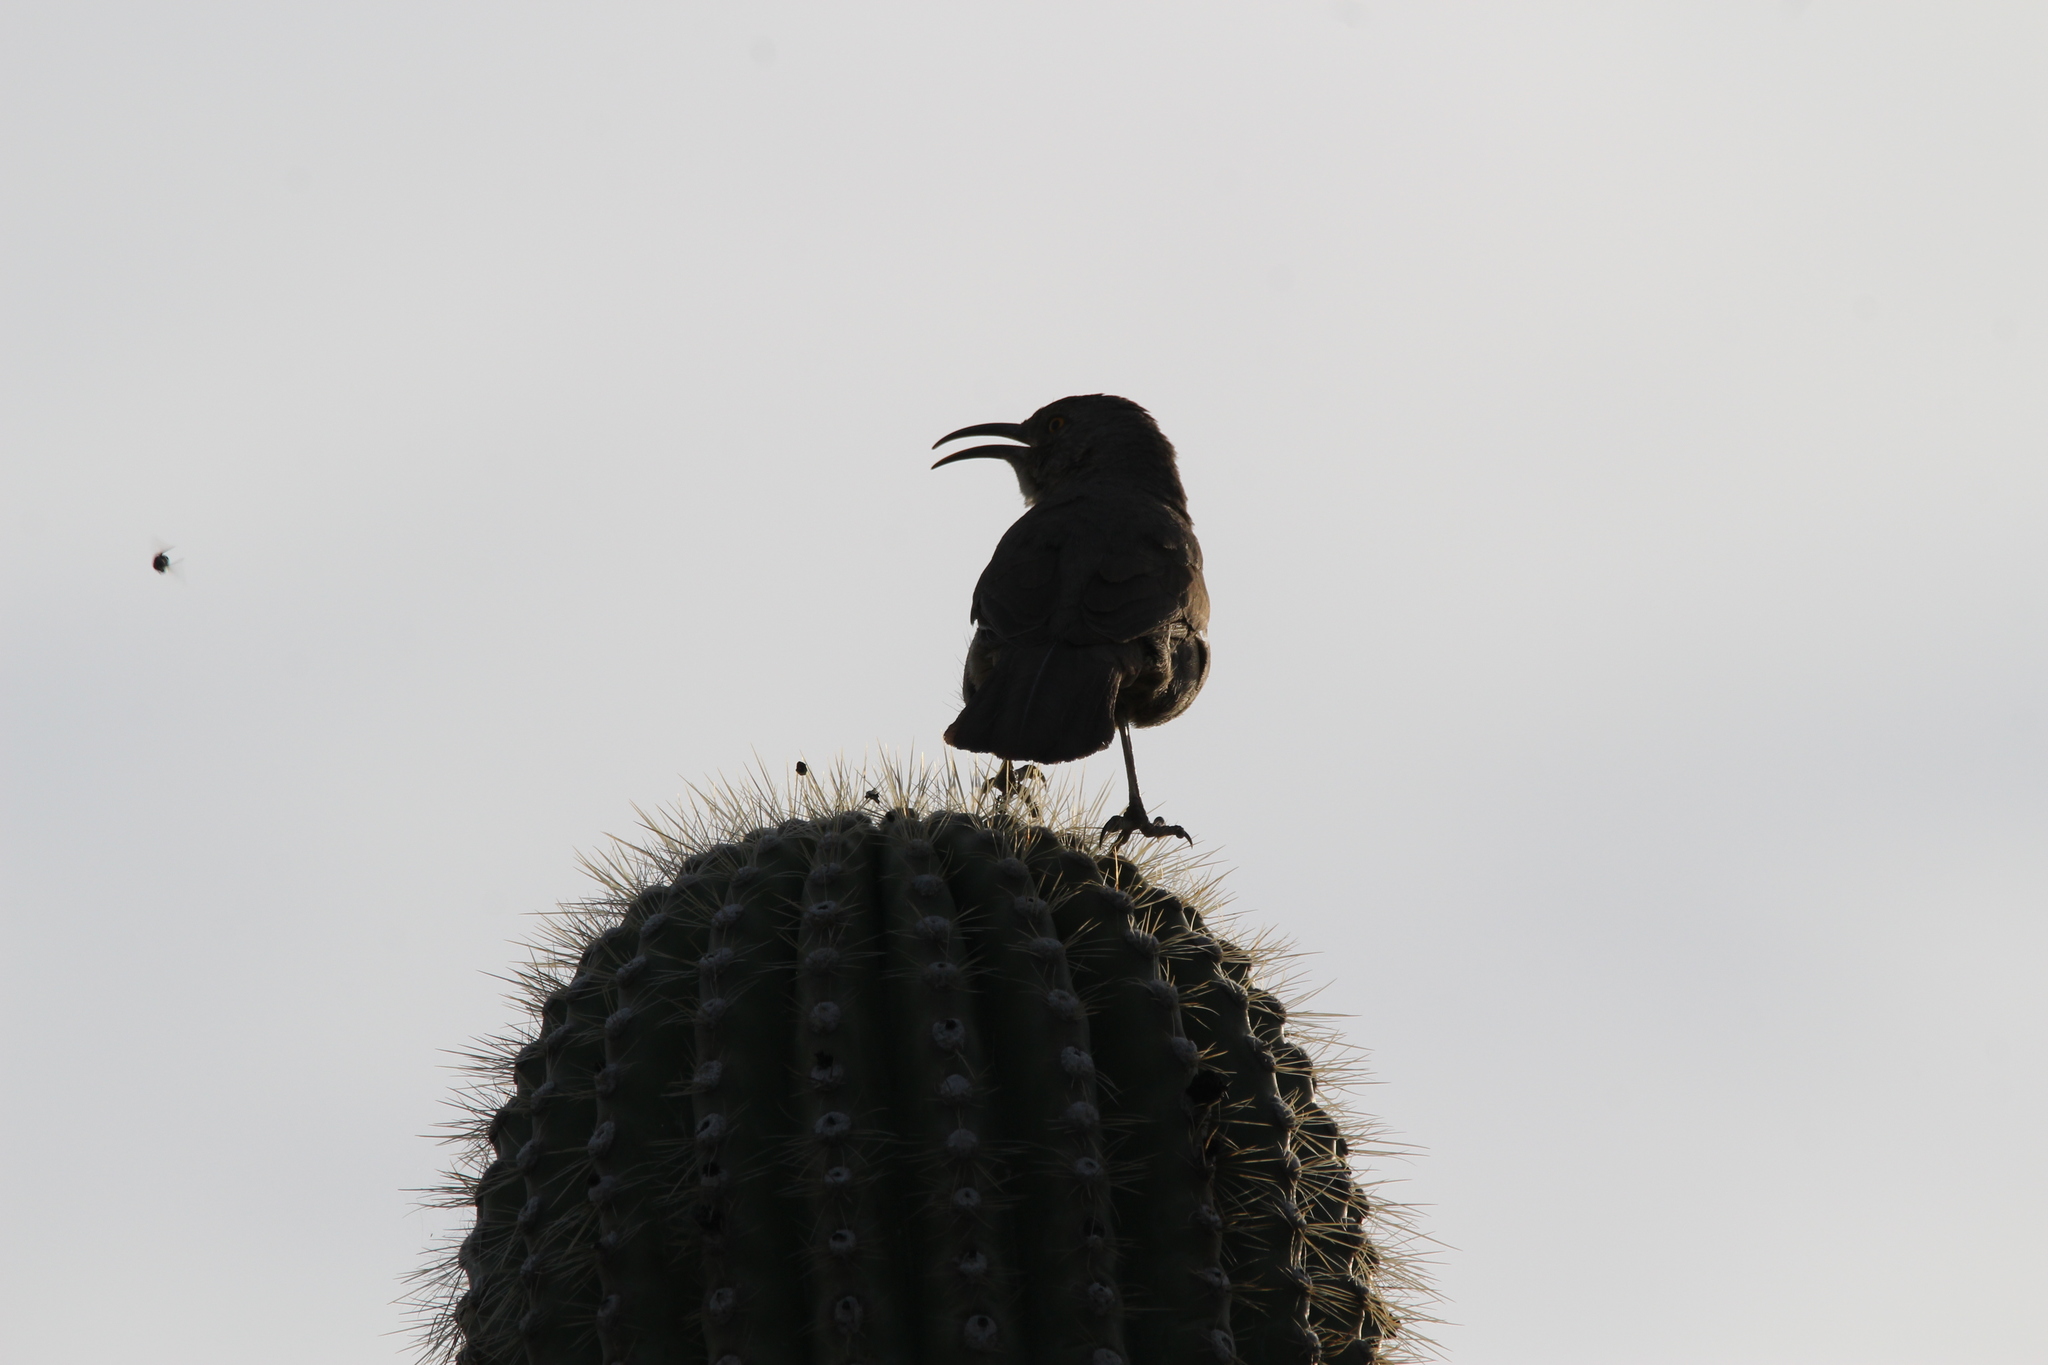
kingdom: Animalia
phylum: Chordata
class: Aves
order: Passeriformes
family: Mimidae
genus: Toxostoma
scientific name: Toxostoma curvirostre
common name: Curve-billed thrasher
